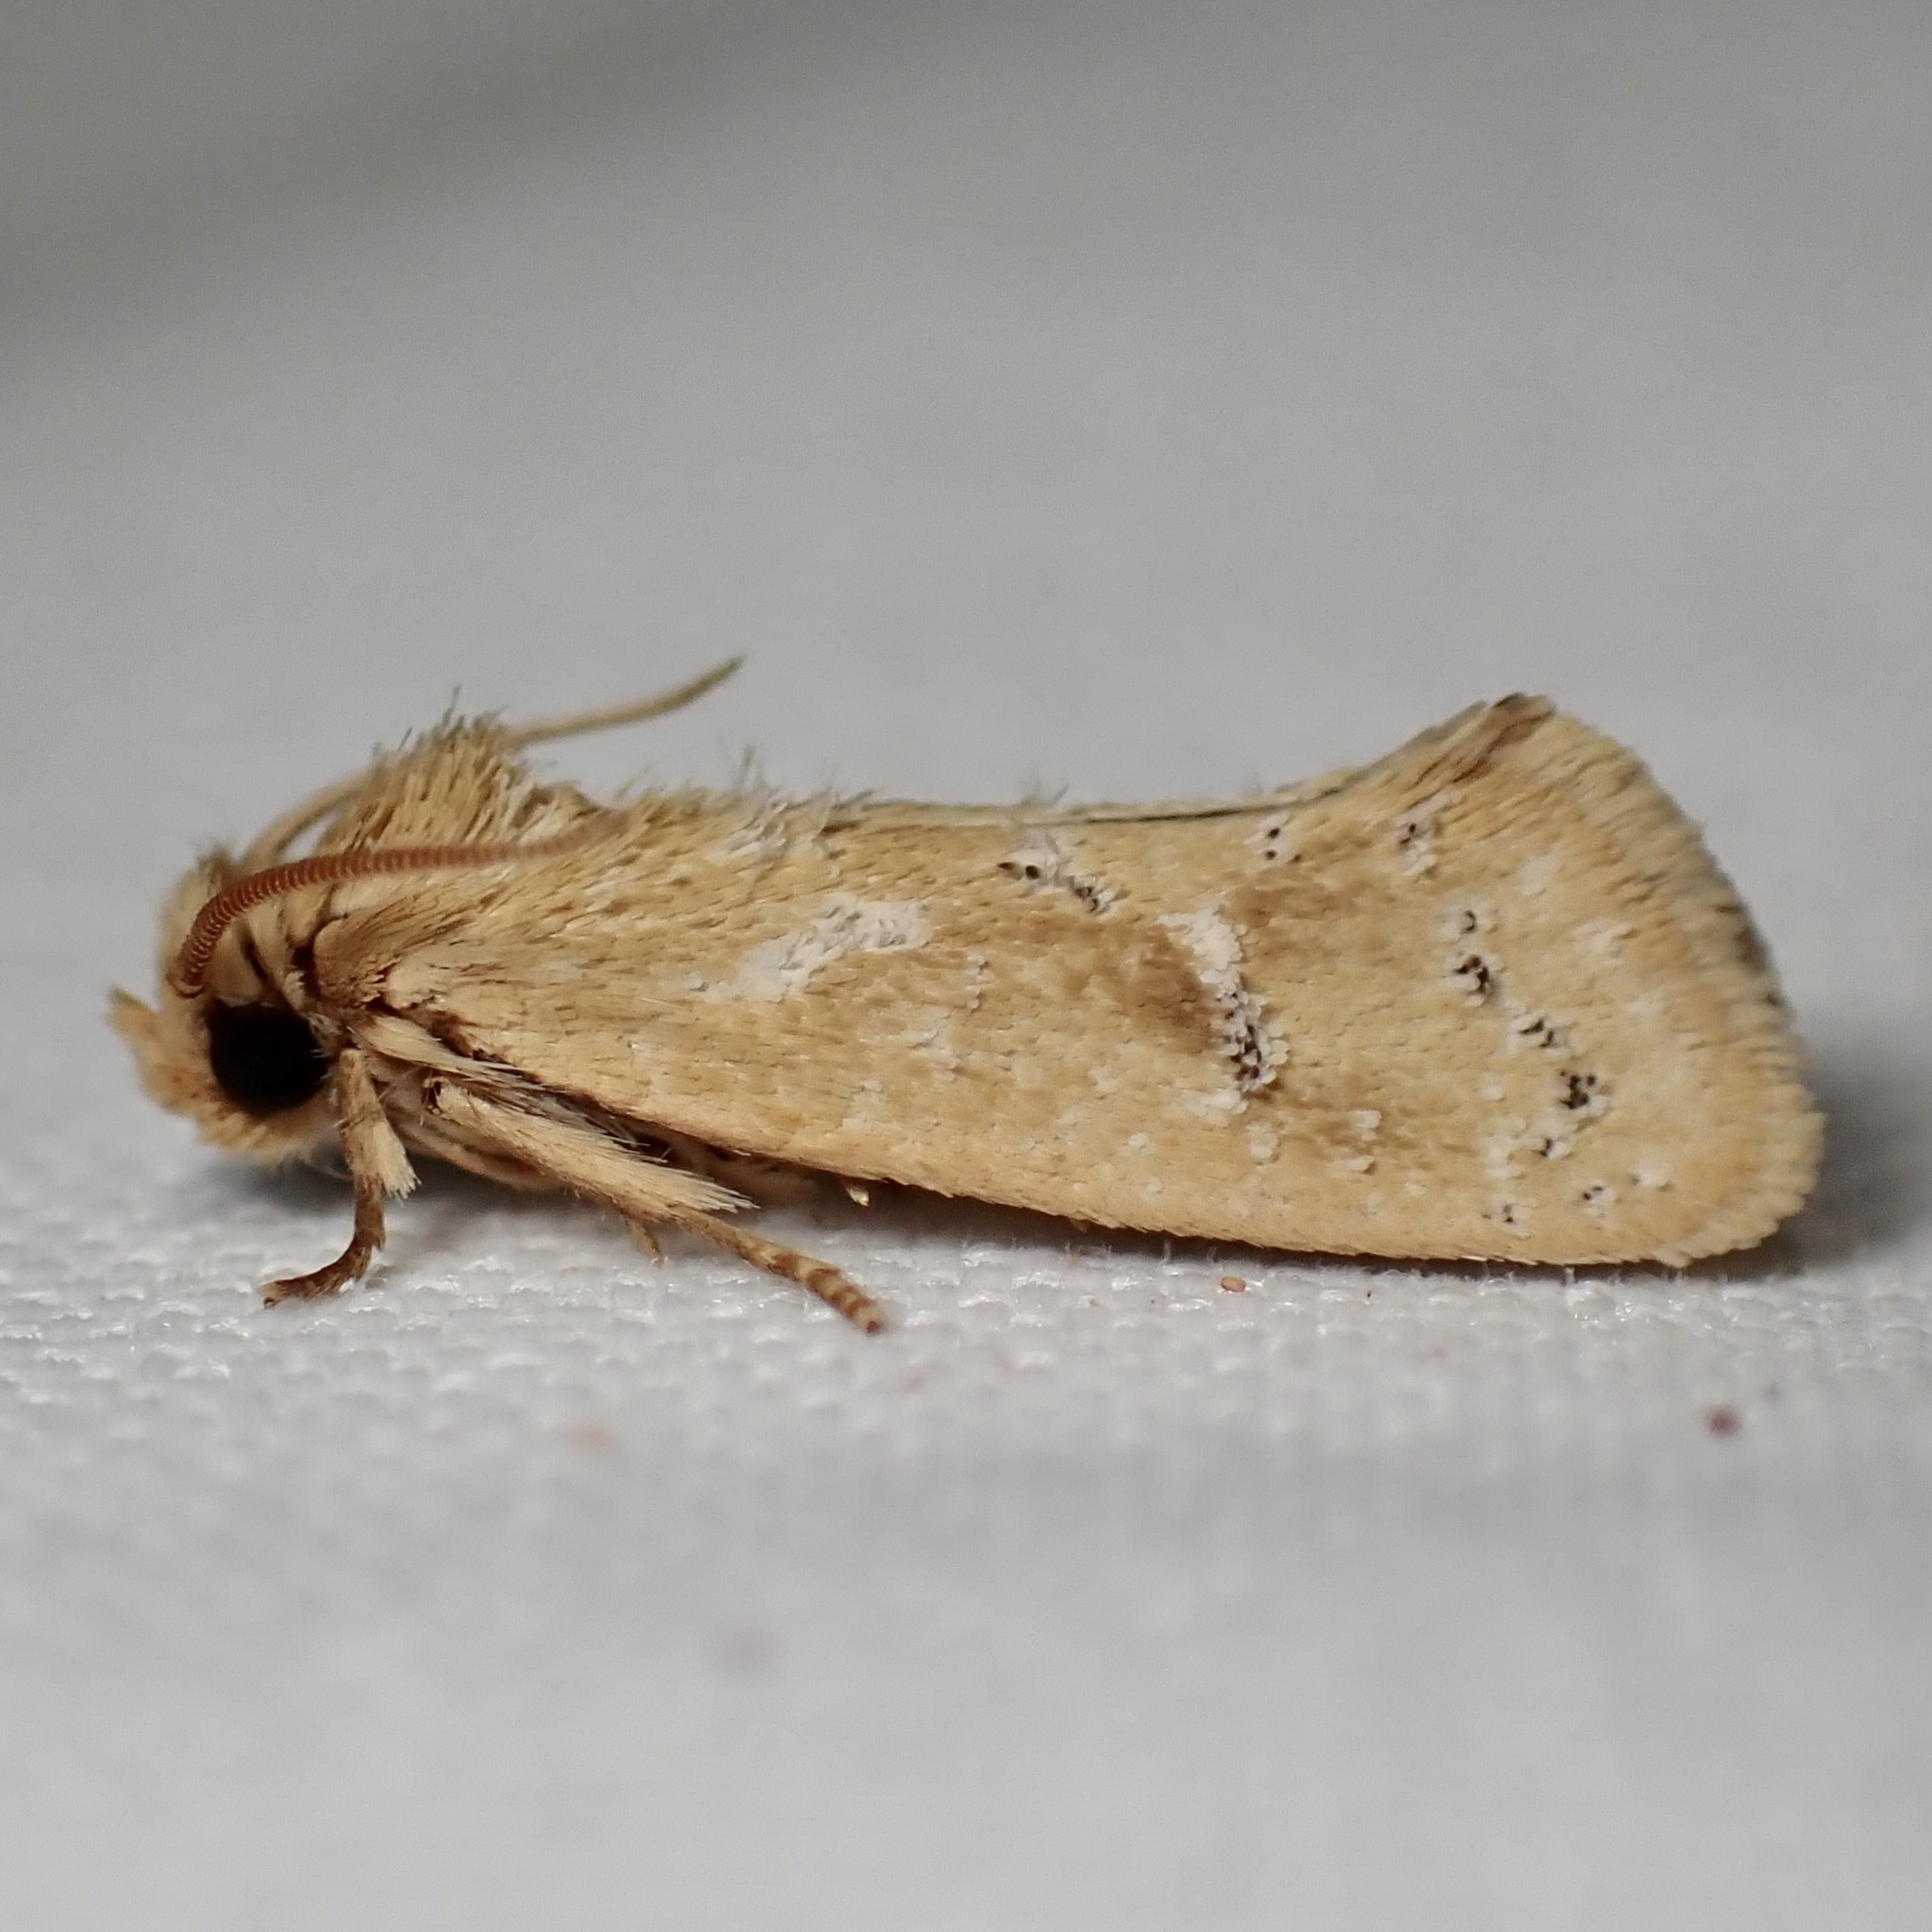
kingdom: Animalia
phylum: Arthropoda
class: Insecta
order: Lepidoptera
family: Tineidae
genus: Acrolophus
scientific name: Acrolophus laticapitana
